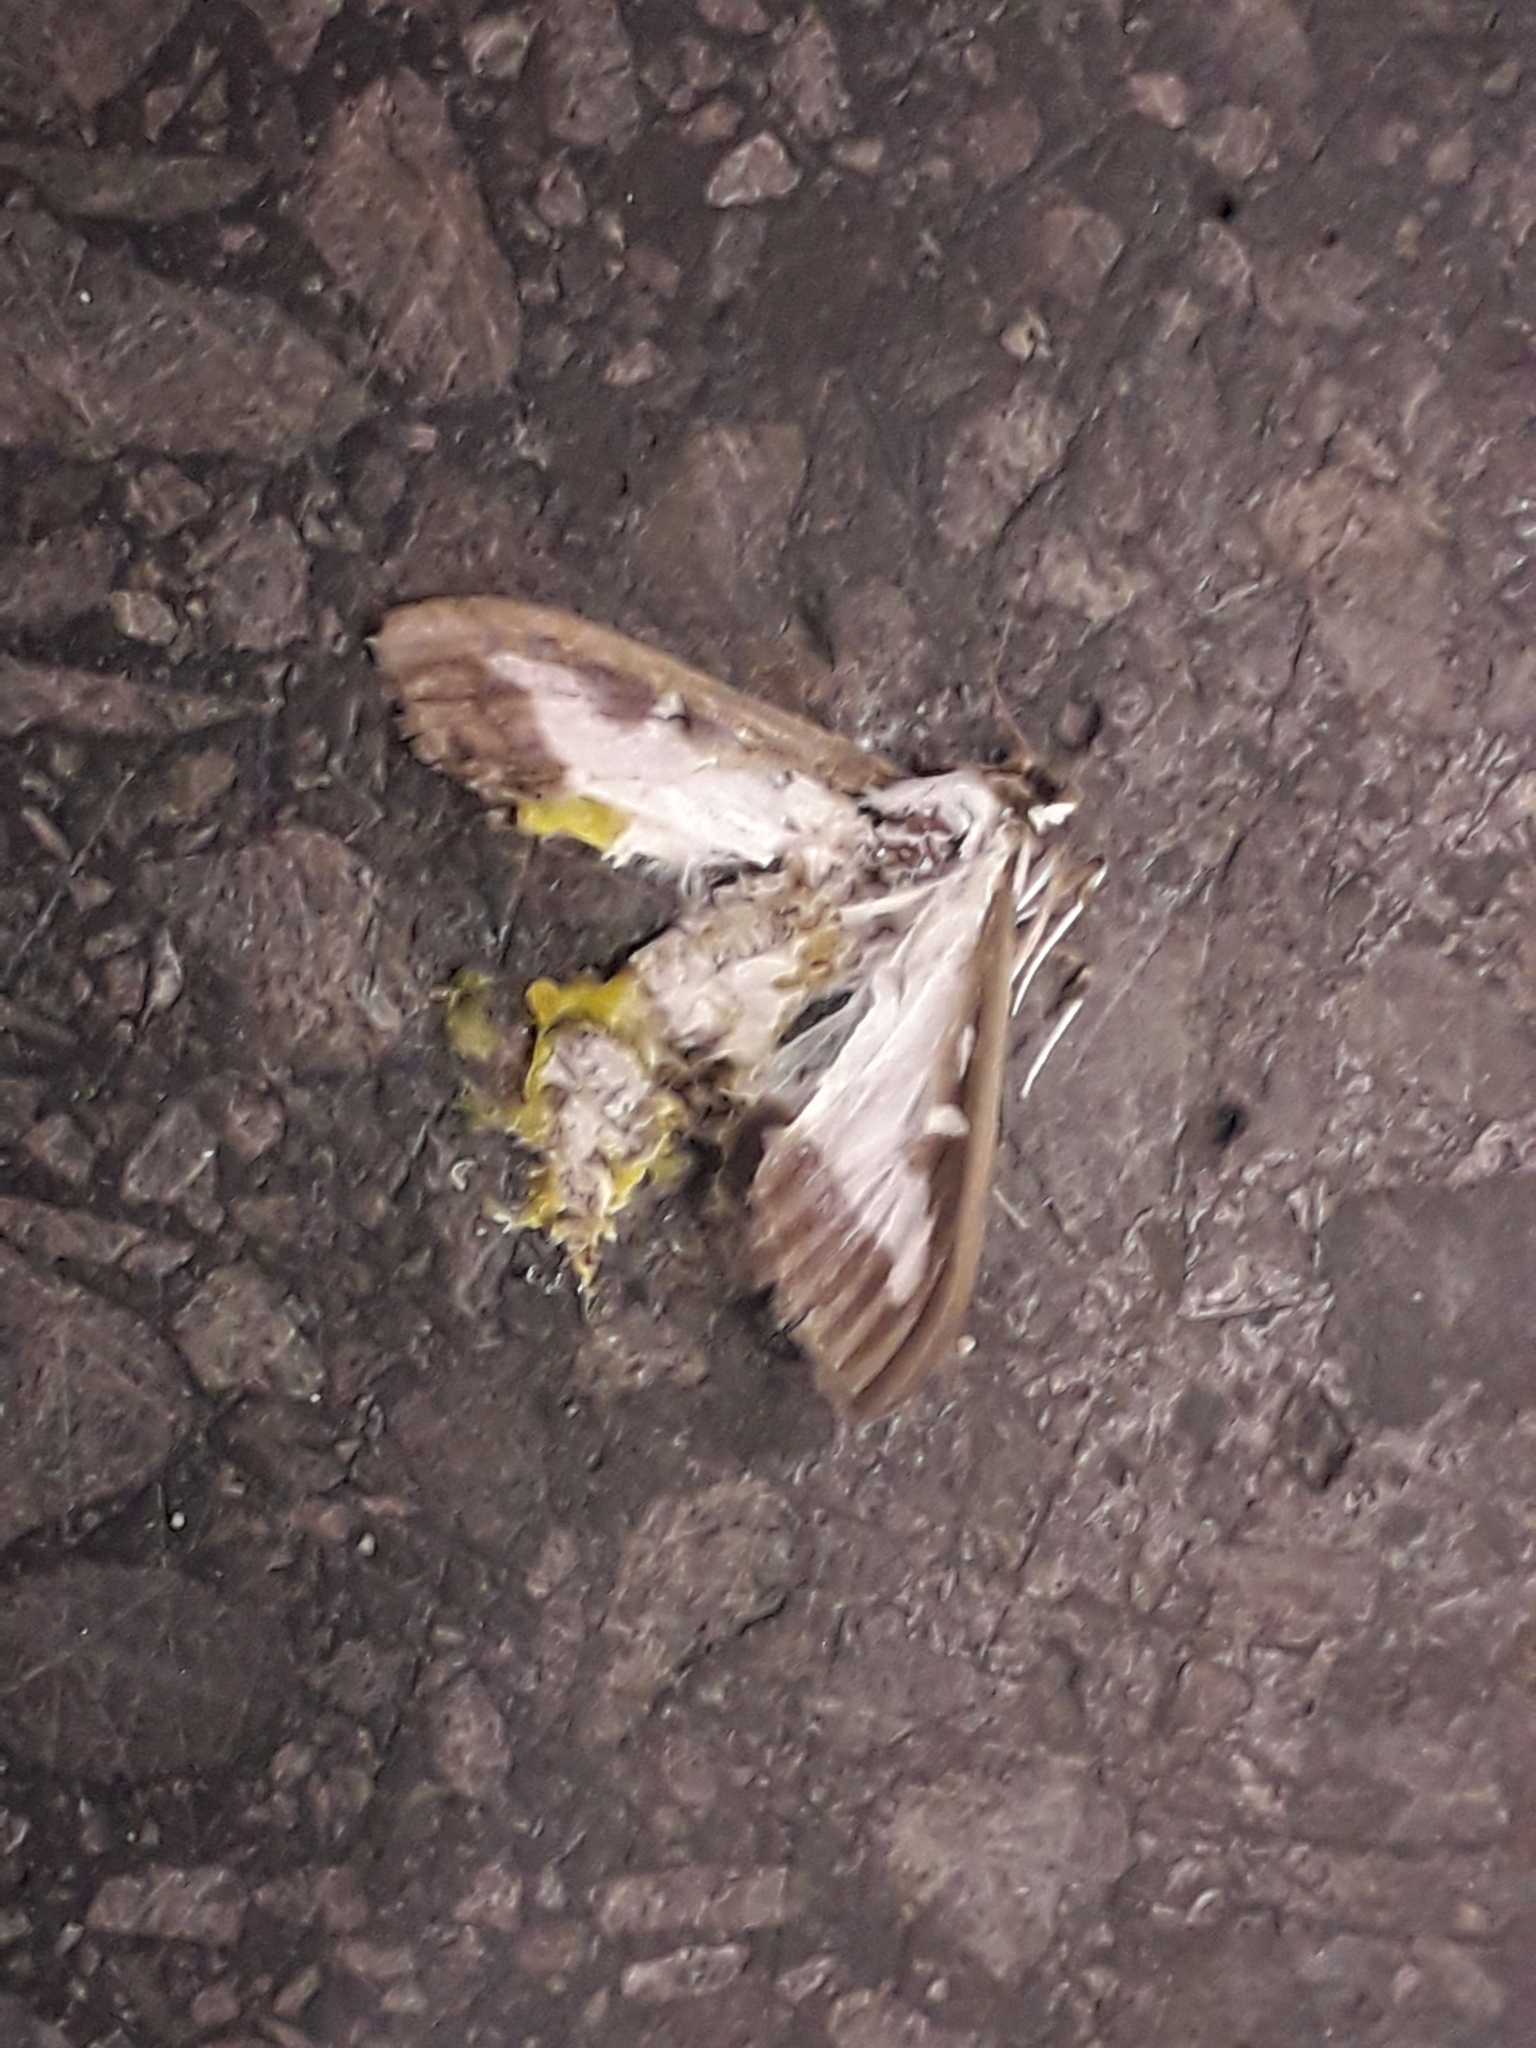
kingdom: Animalia
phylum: Arthropoda
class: Insecta
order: Lepidoptera
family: Crambidae
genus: Cydalima
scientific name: Cydalima perspectalis
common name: Box tree moth
